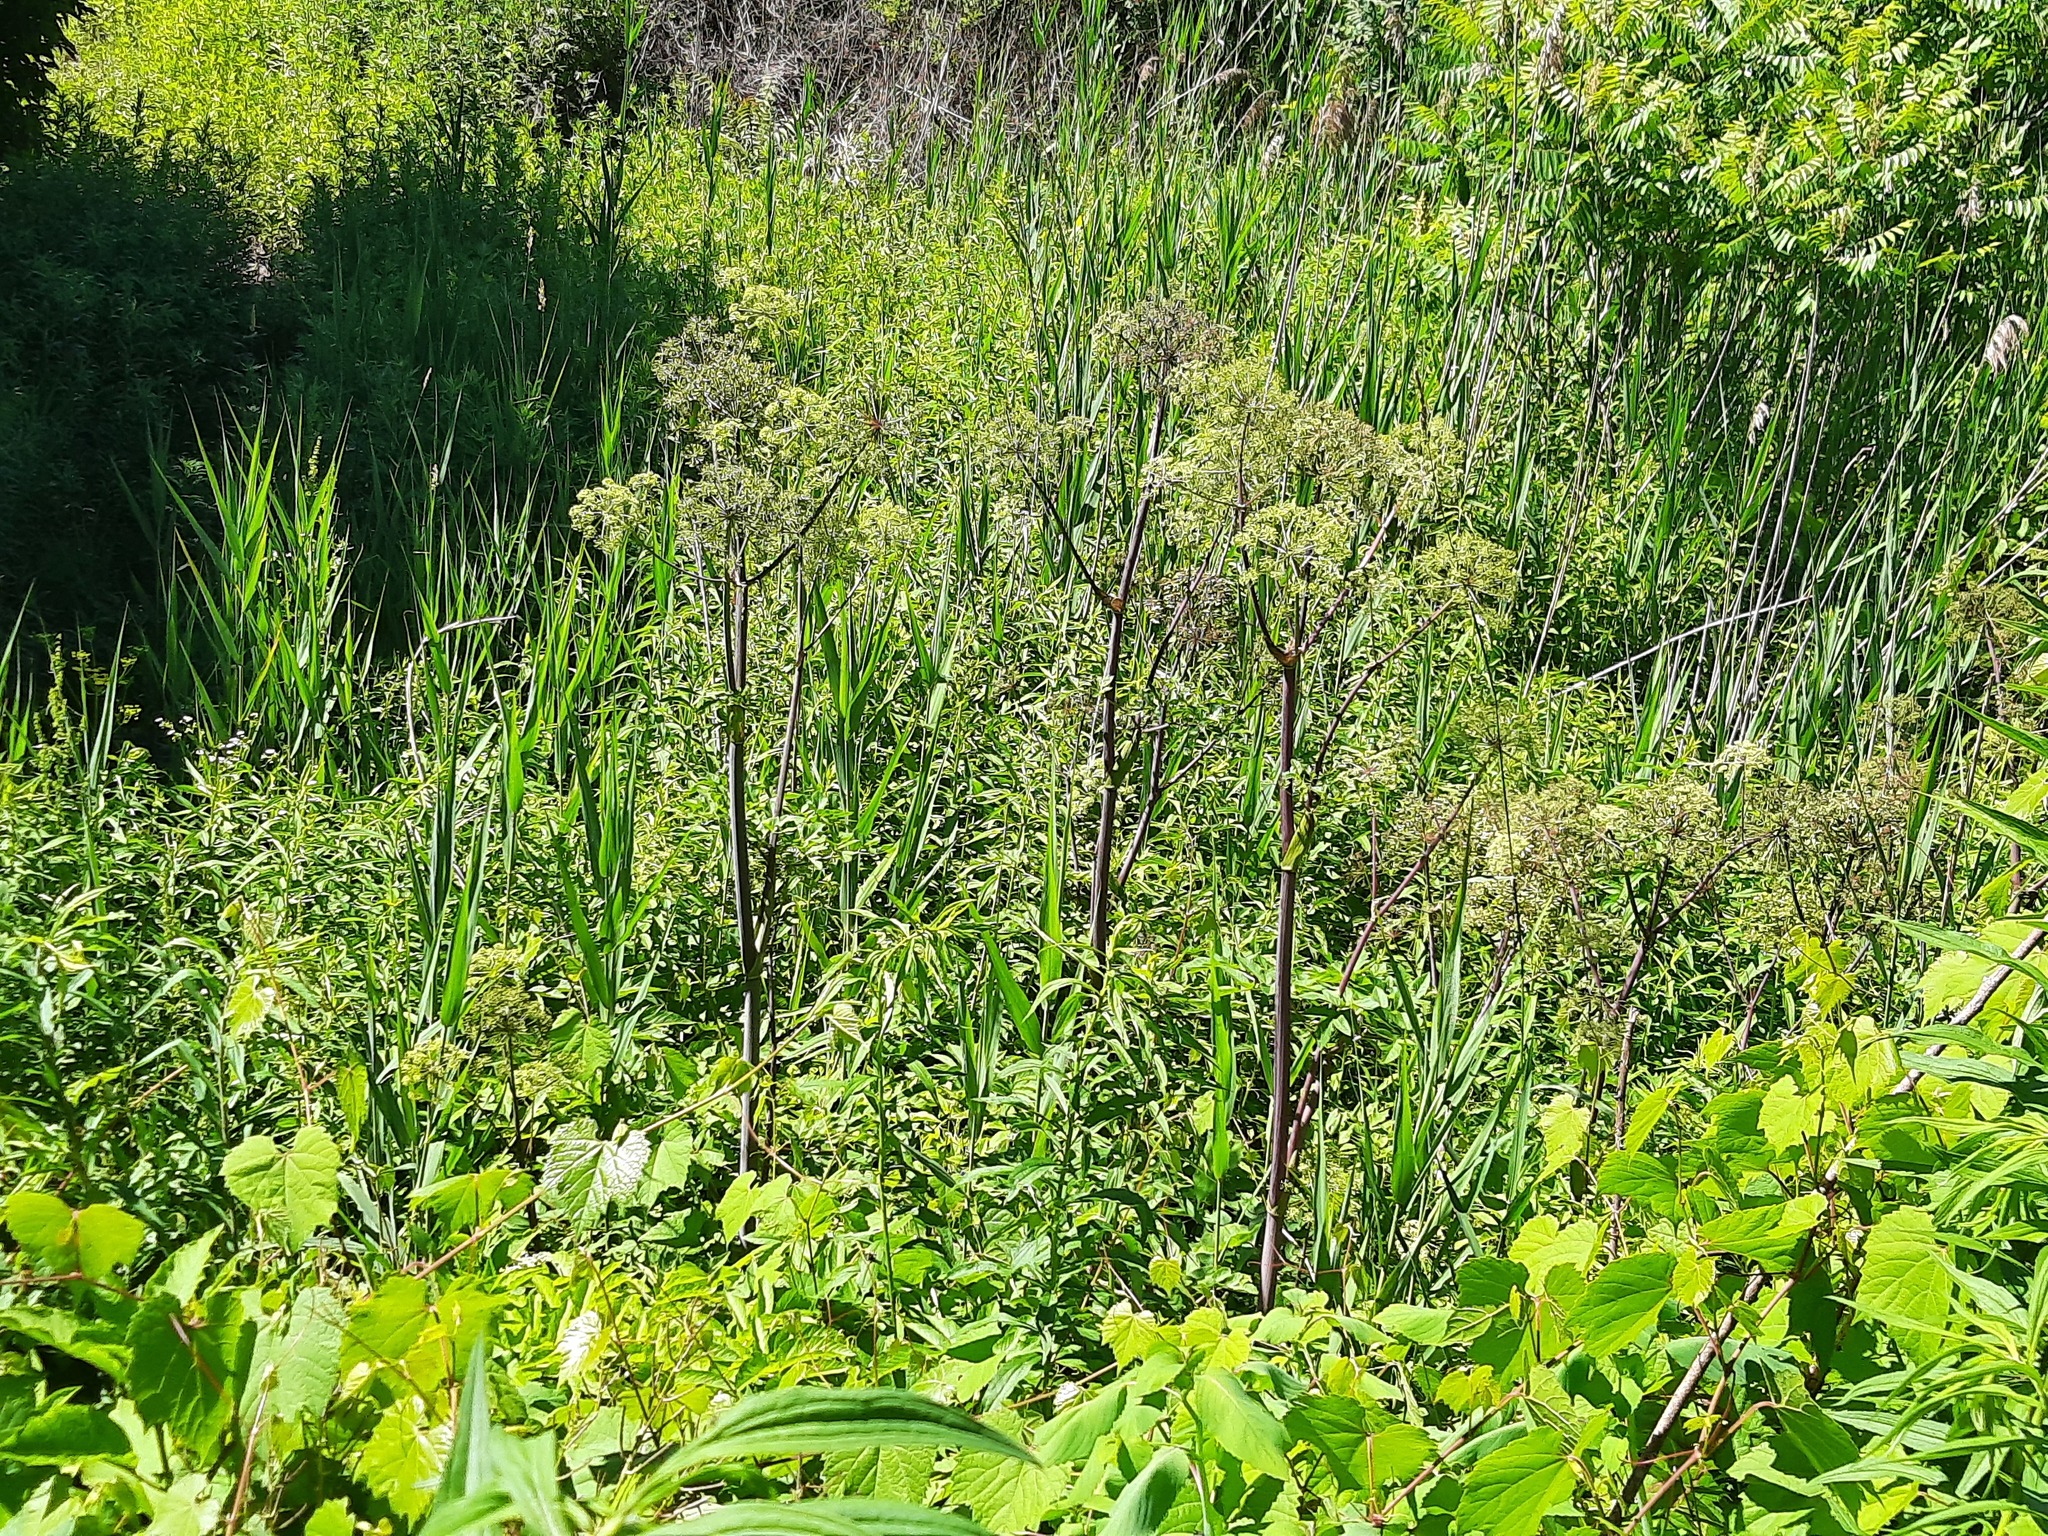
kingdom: Plantae
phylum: Tracheophyta
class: Magnoliopsida
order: Apiales
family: Apiaceae
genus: Angelica
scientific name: Angelica atropurpurea
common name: Great angelica
